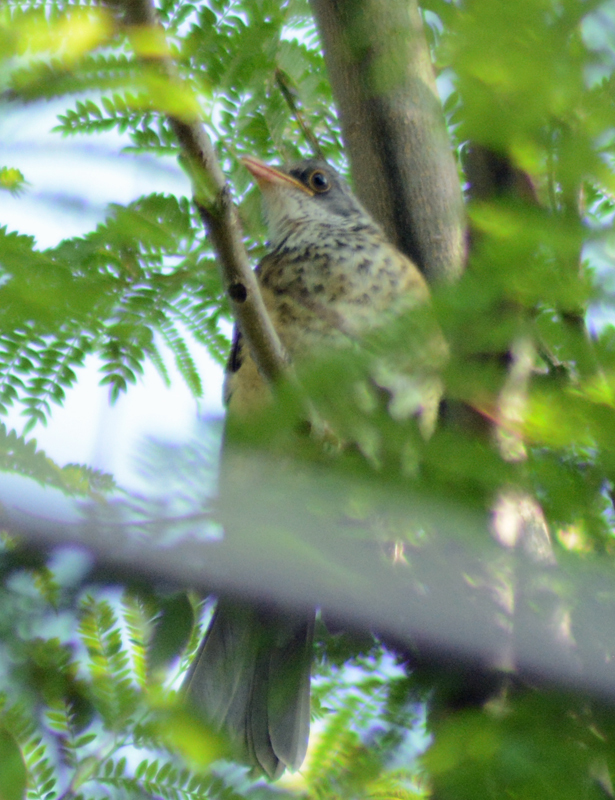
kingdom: Animalia
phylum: Chordata
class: Aves
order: Passeriformes
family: Turdidae
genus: Turdus
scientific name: Turdus rufopalliatus
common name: Rufous-backed robin
